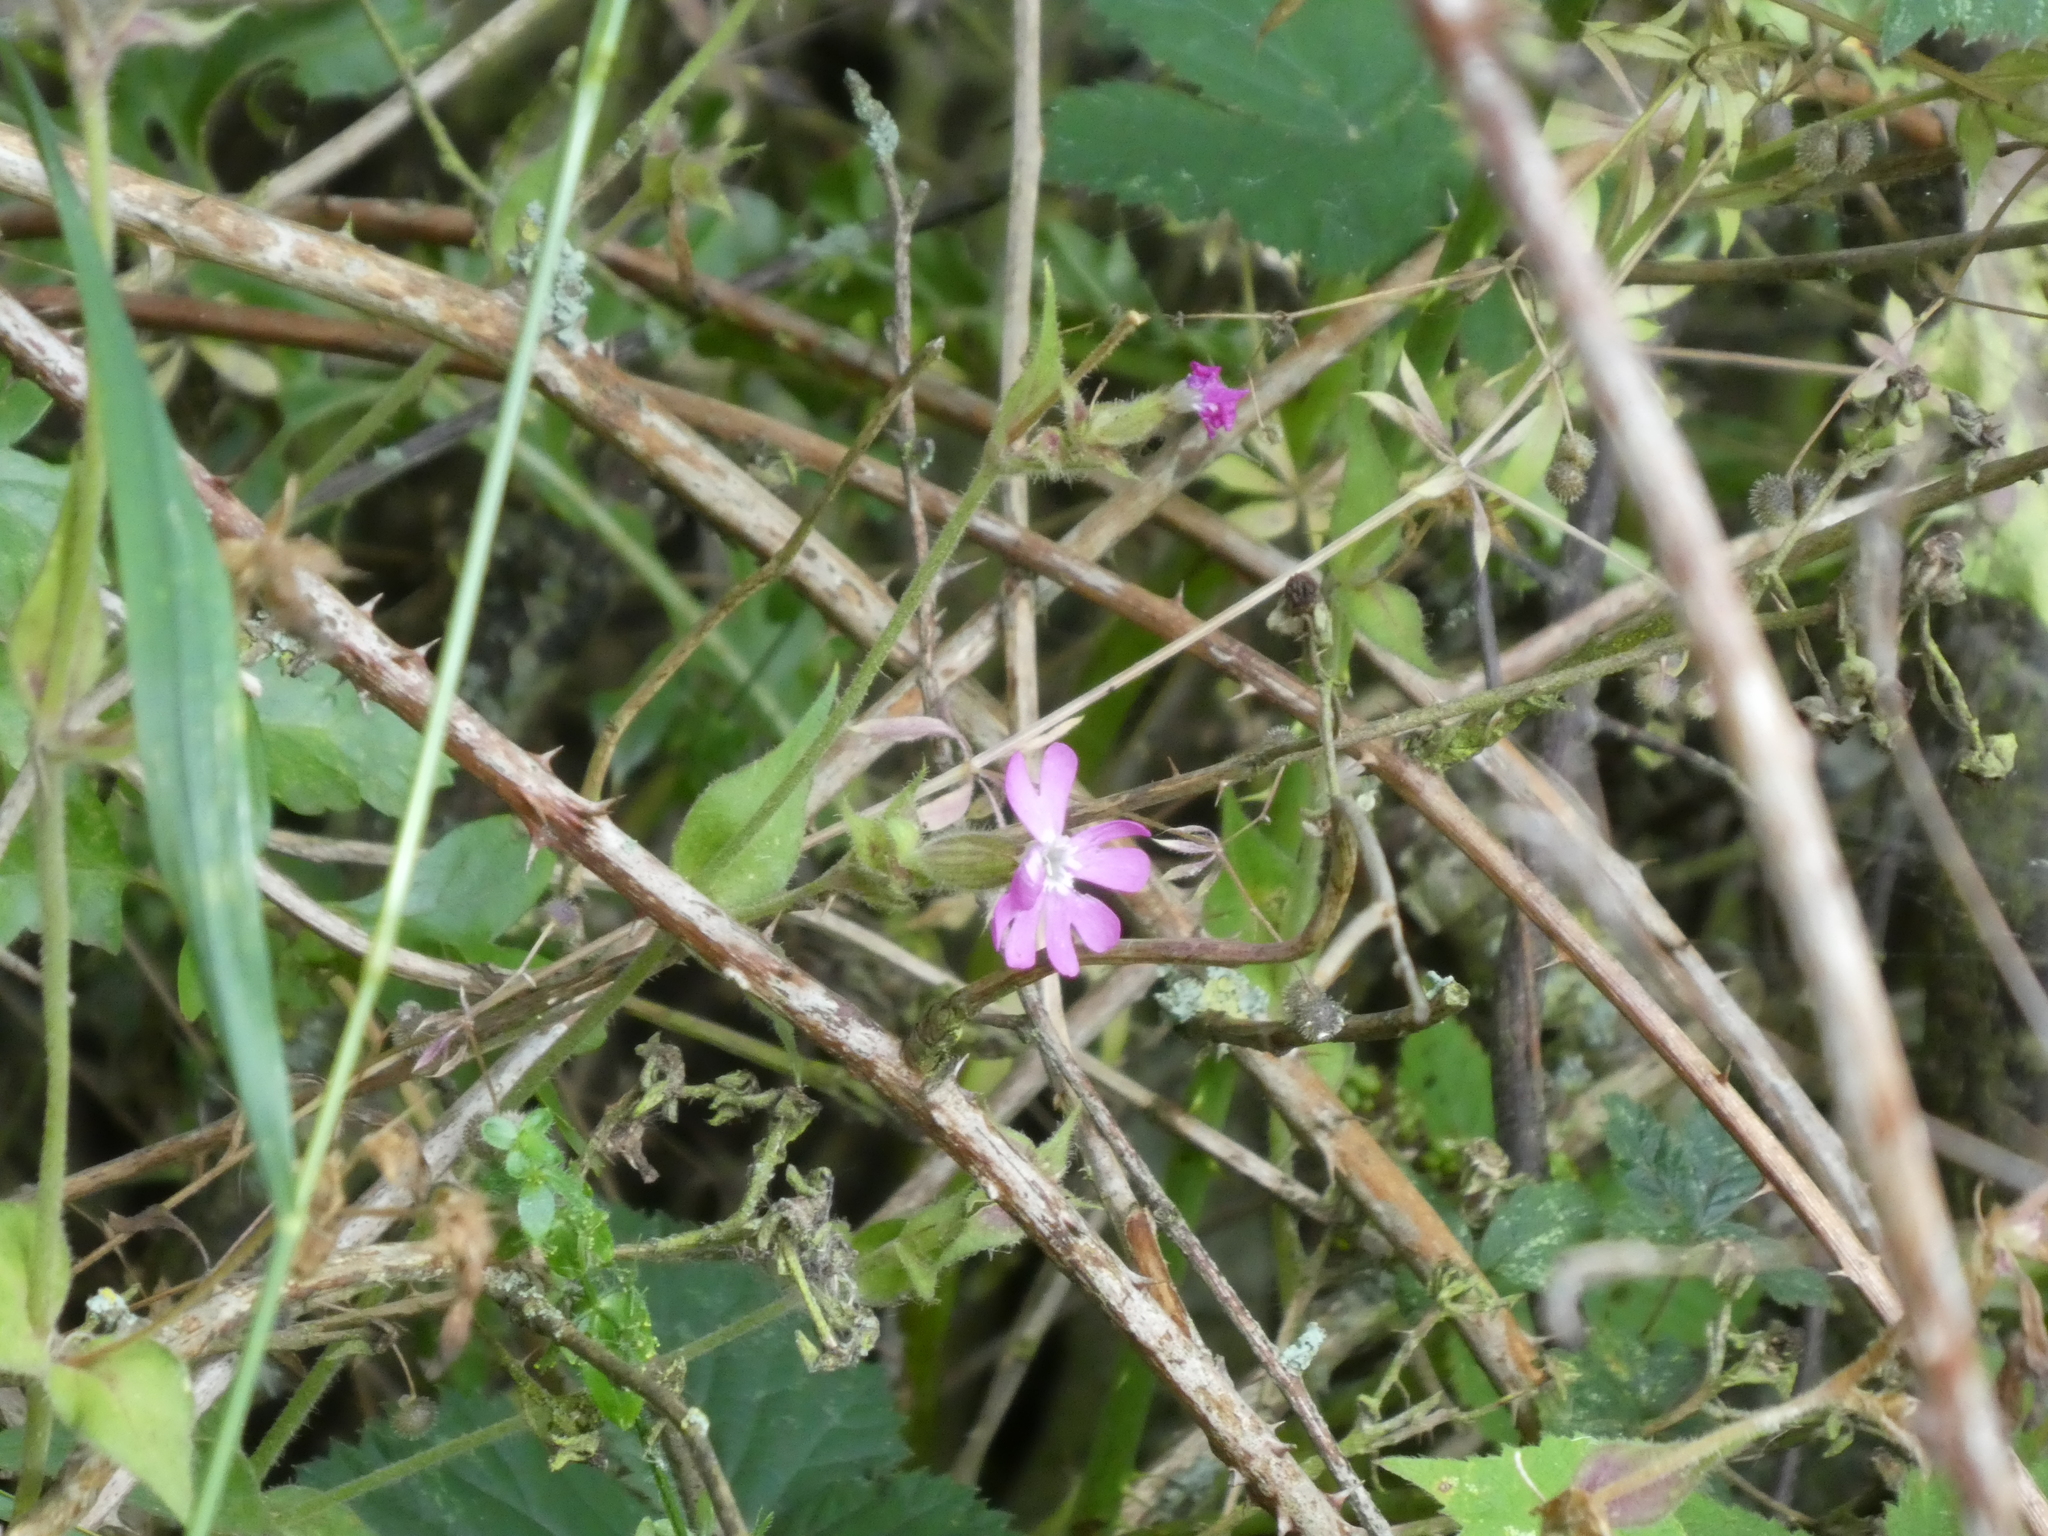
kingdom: Plantae
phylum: Tracheophyta
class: Magnoliopsida
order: Caryophyllales
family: Caryophyllaceae
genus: Silene
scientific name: Silene dioica
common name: Red campion
